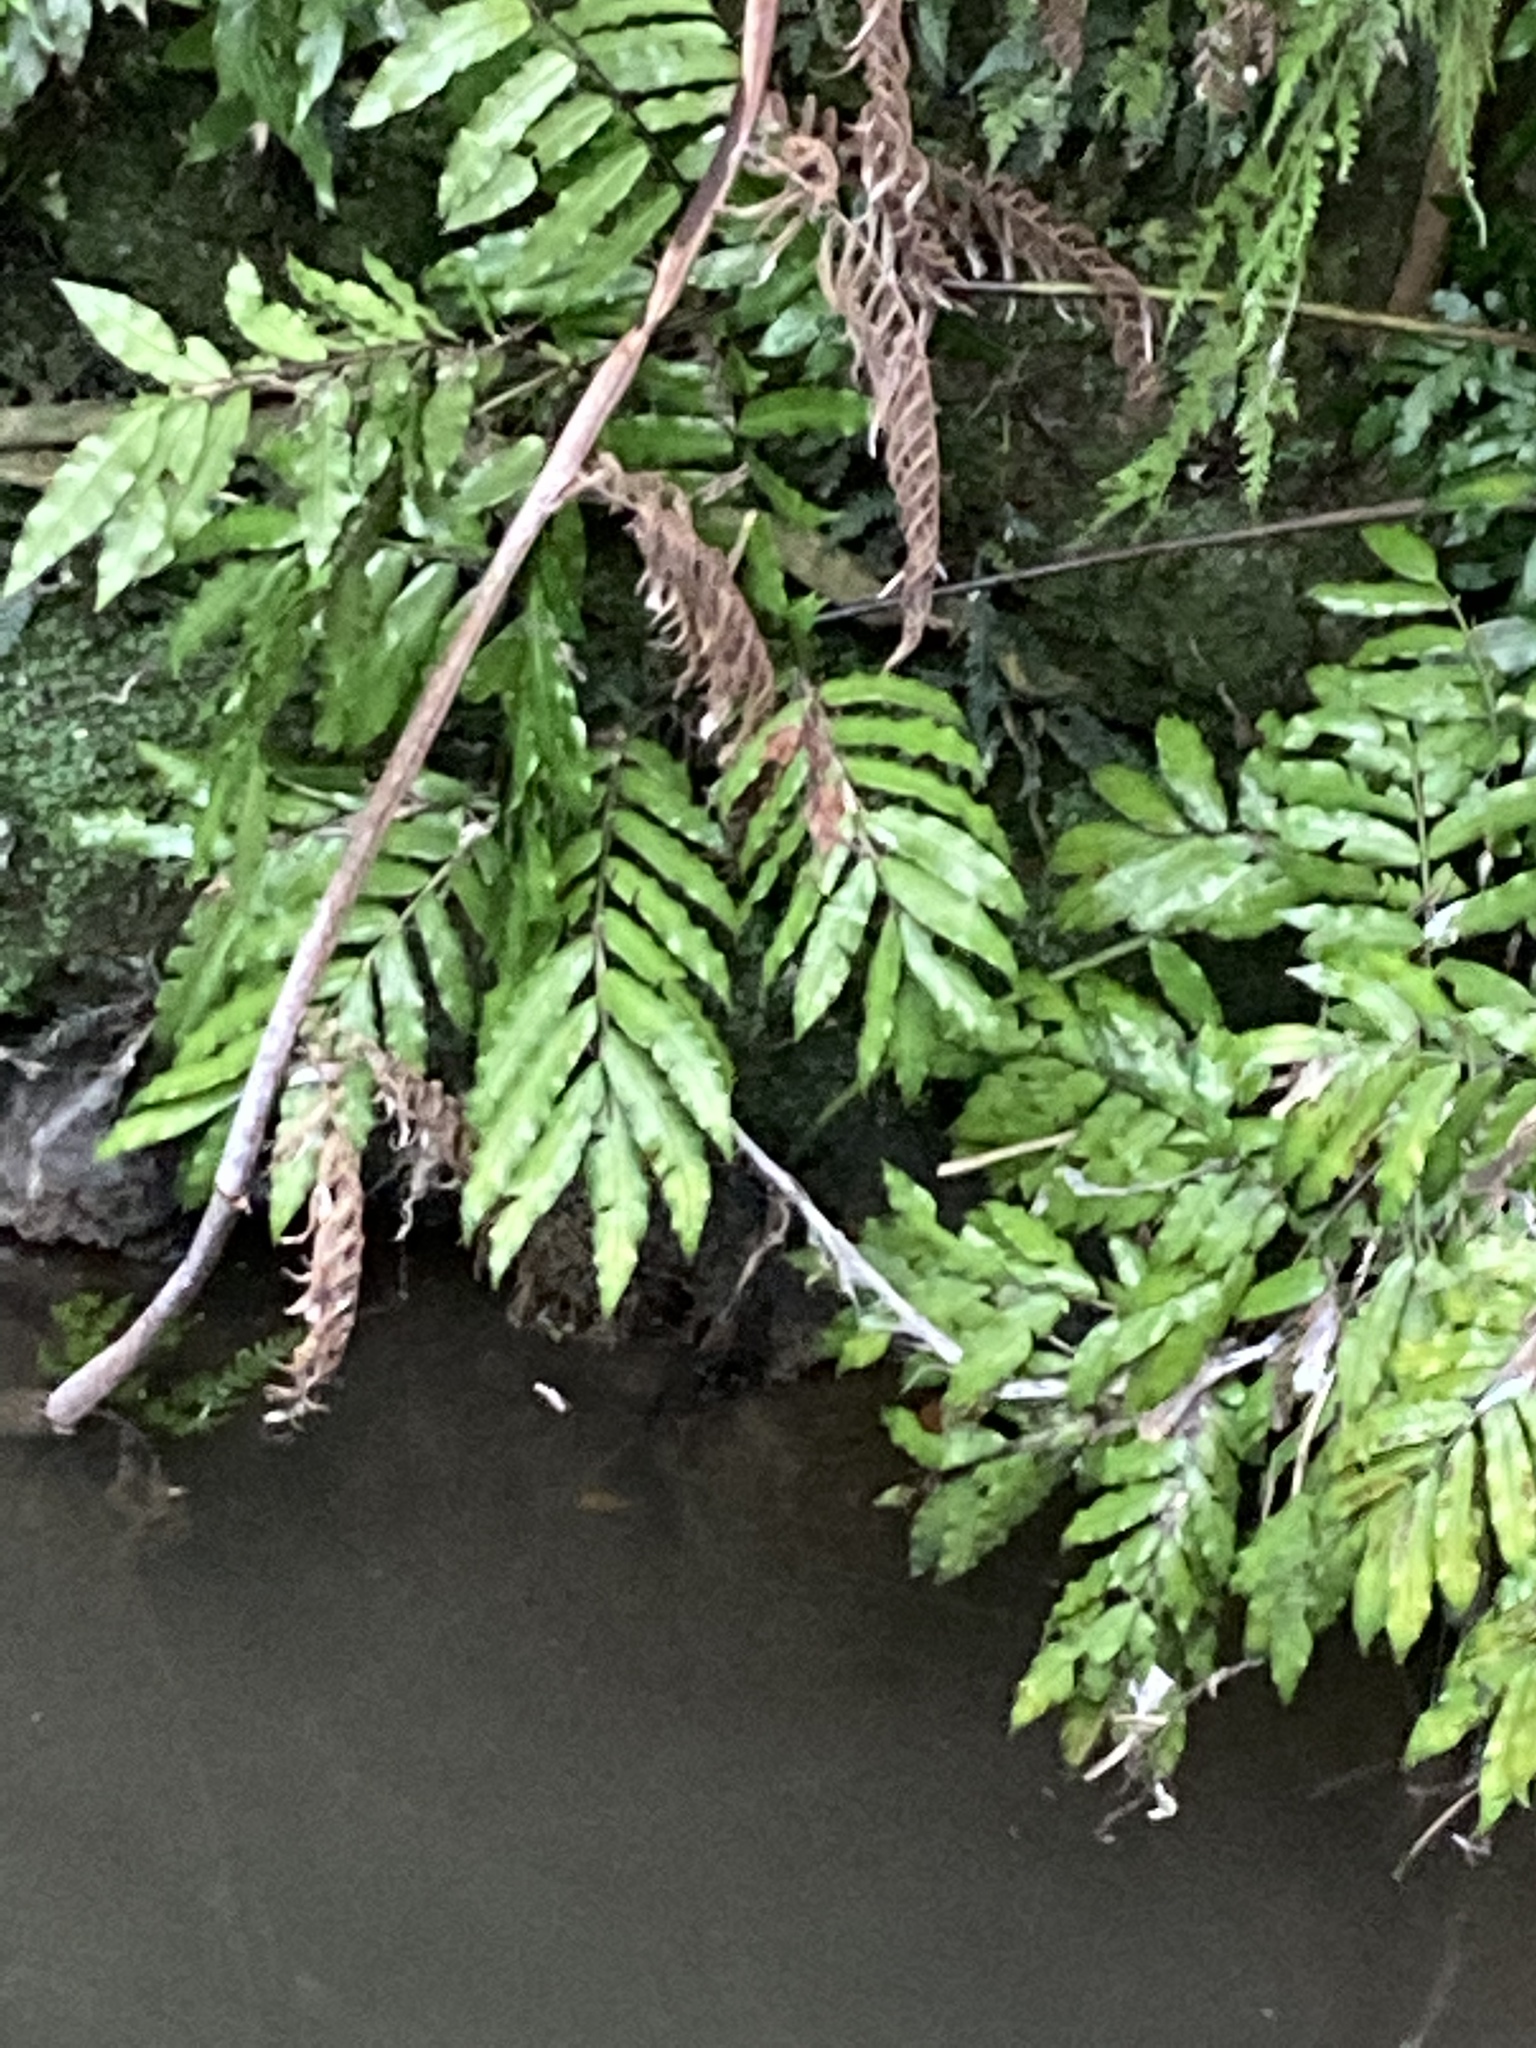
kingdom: Plantae
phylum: Tracheophyta
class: Polypodiopsida
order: Marattiales
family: Marattiaceae
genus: Ptisana
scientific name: Ptisana salicina
